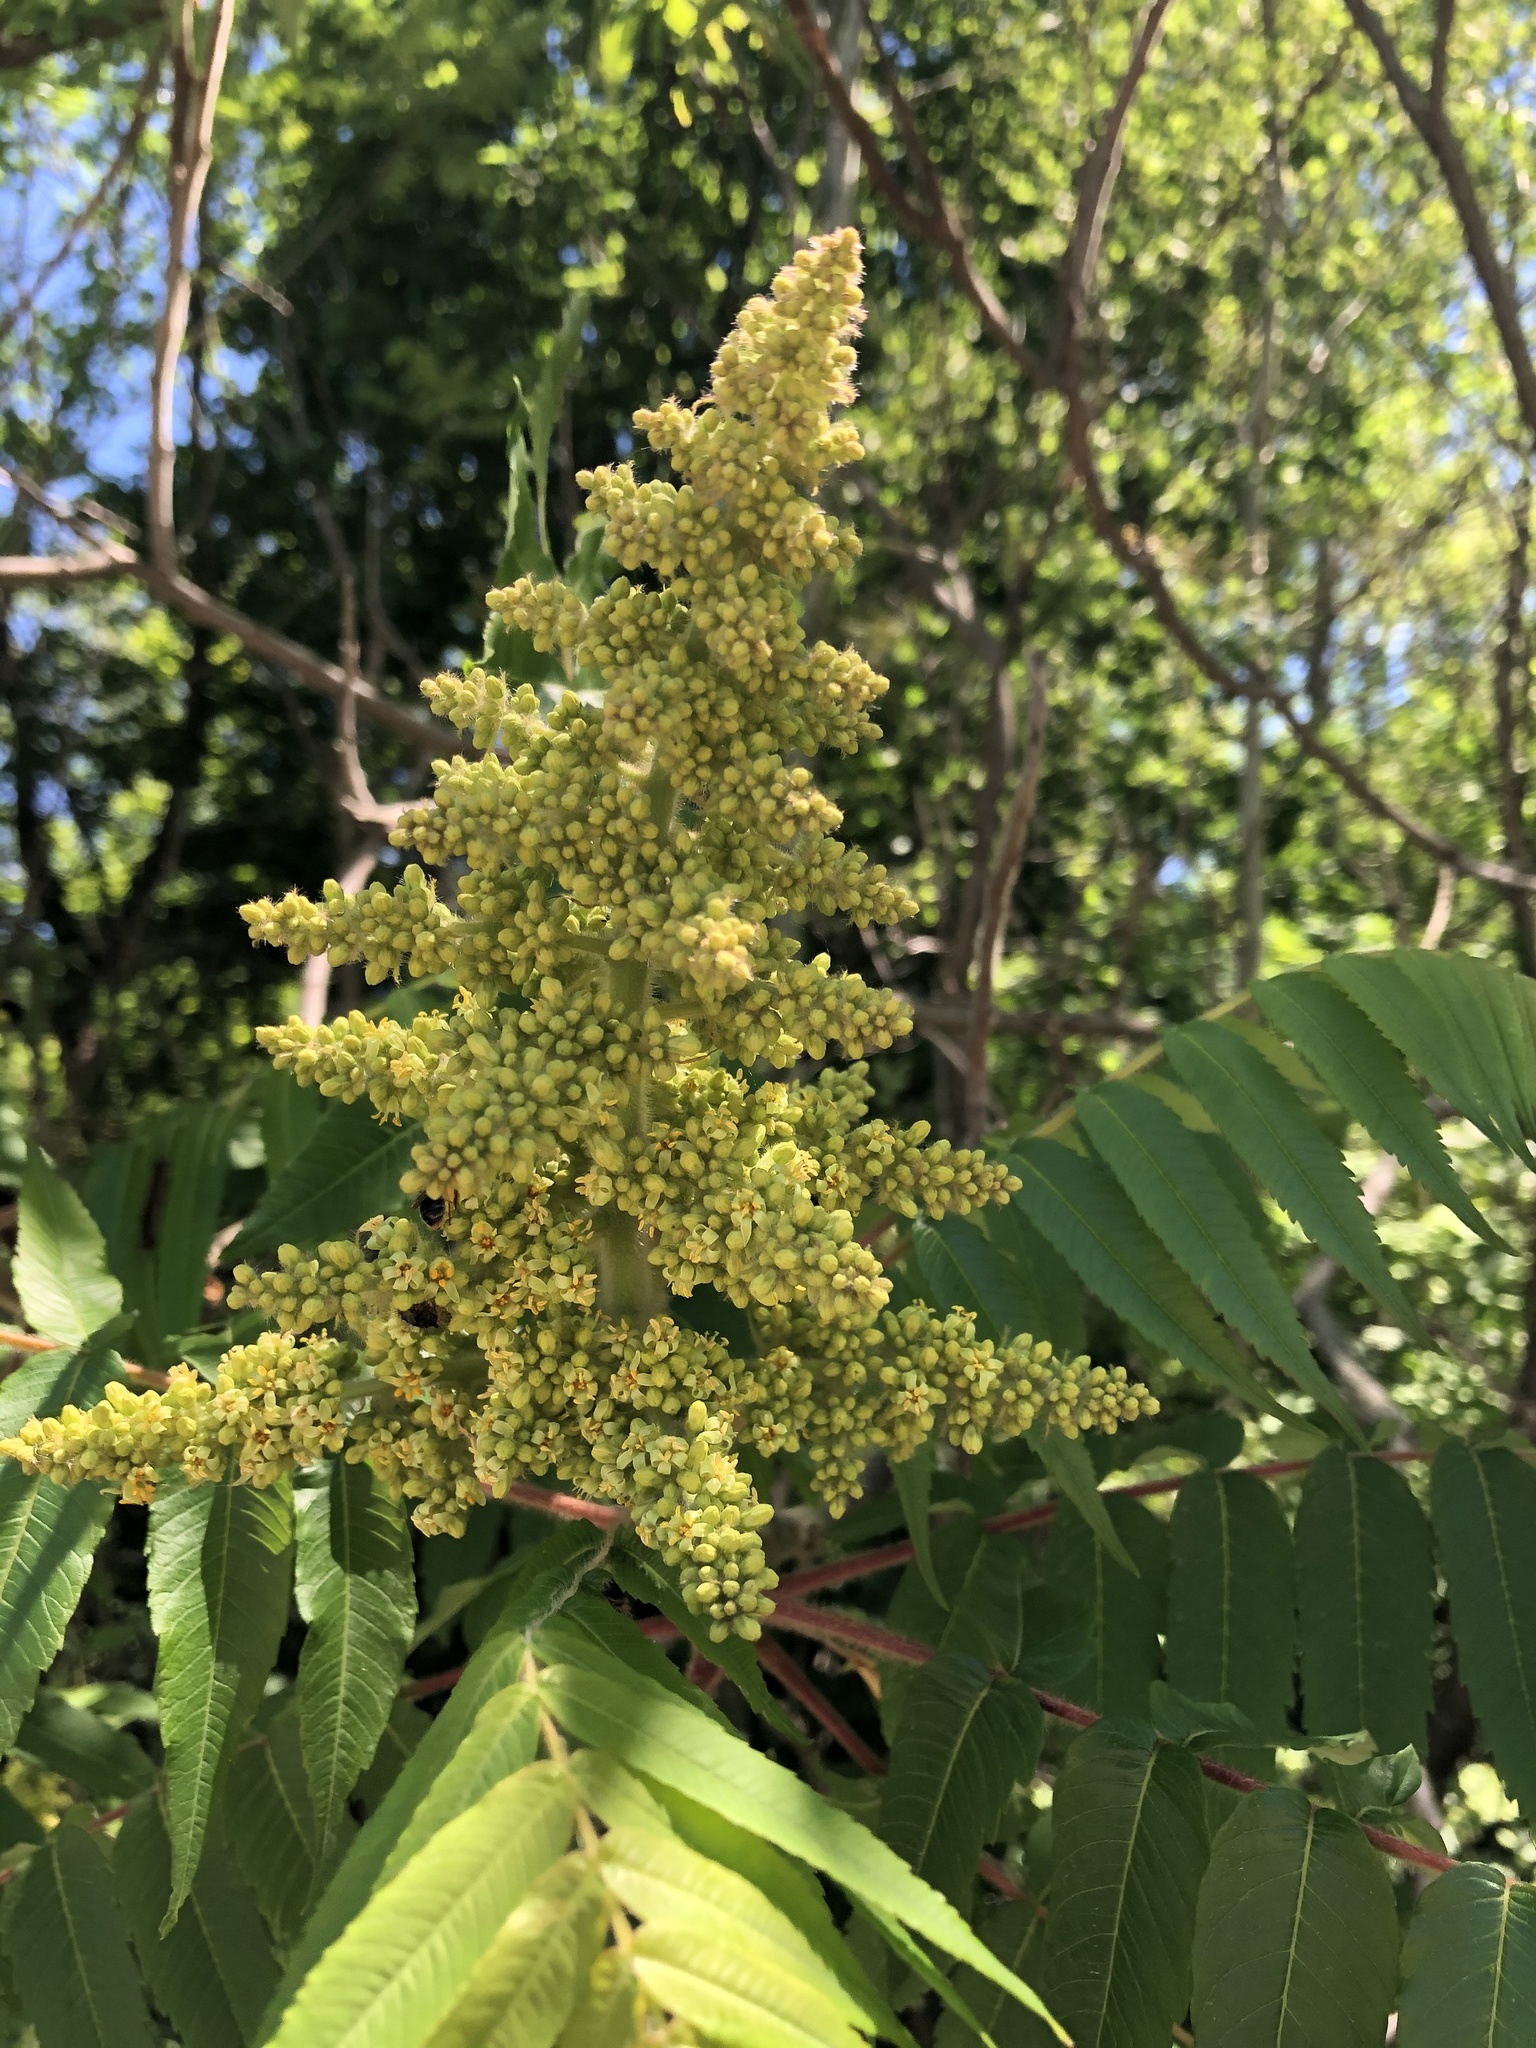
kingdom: Plantae
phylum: Tracheophyta
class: Magnoliopsida
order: Sapindales
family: Anacardiaceae
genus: Rhus
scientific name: Rhus typhina
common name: Staghorn sumac
